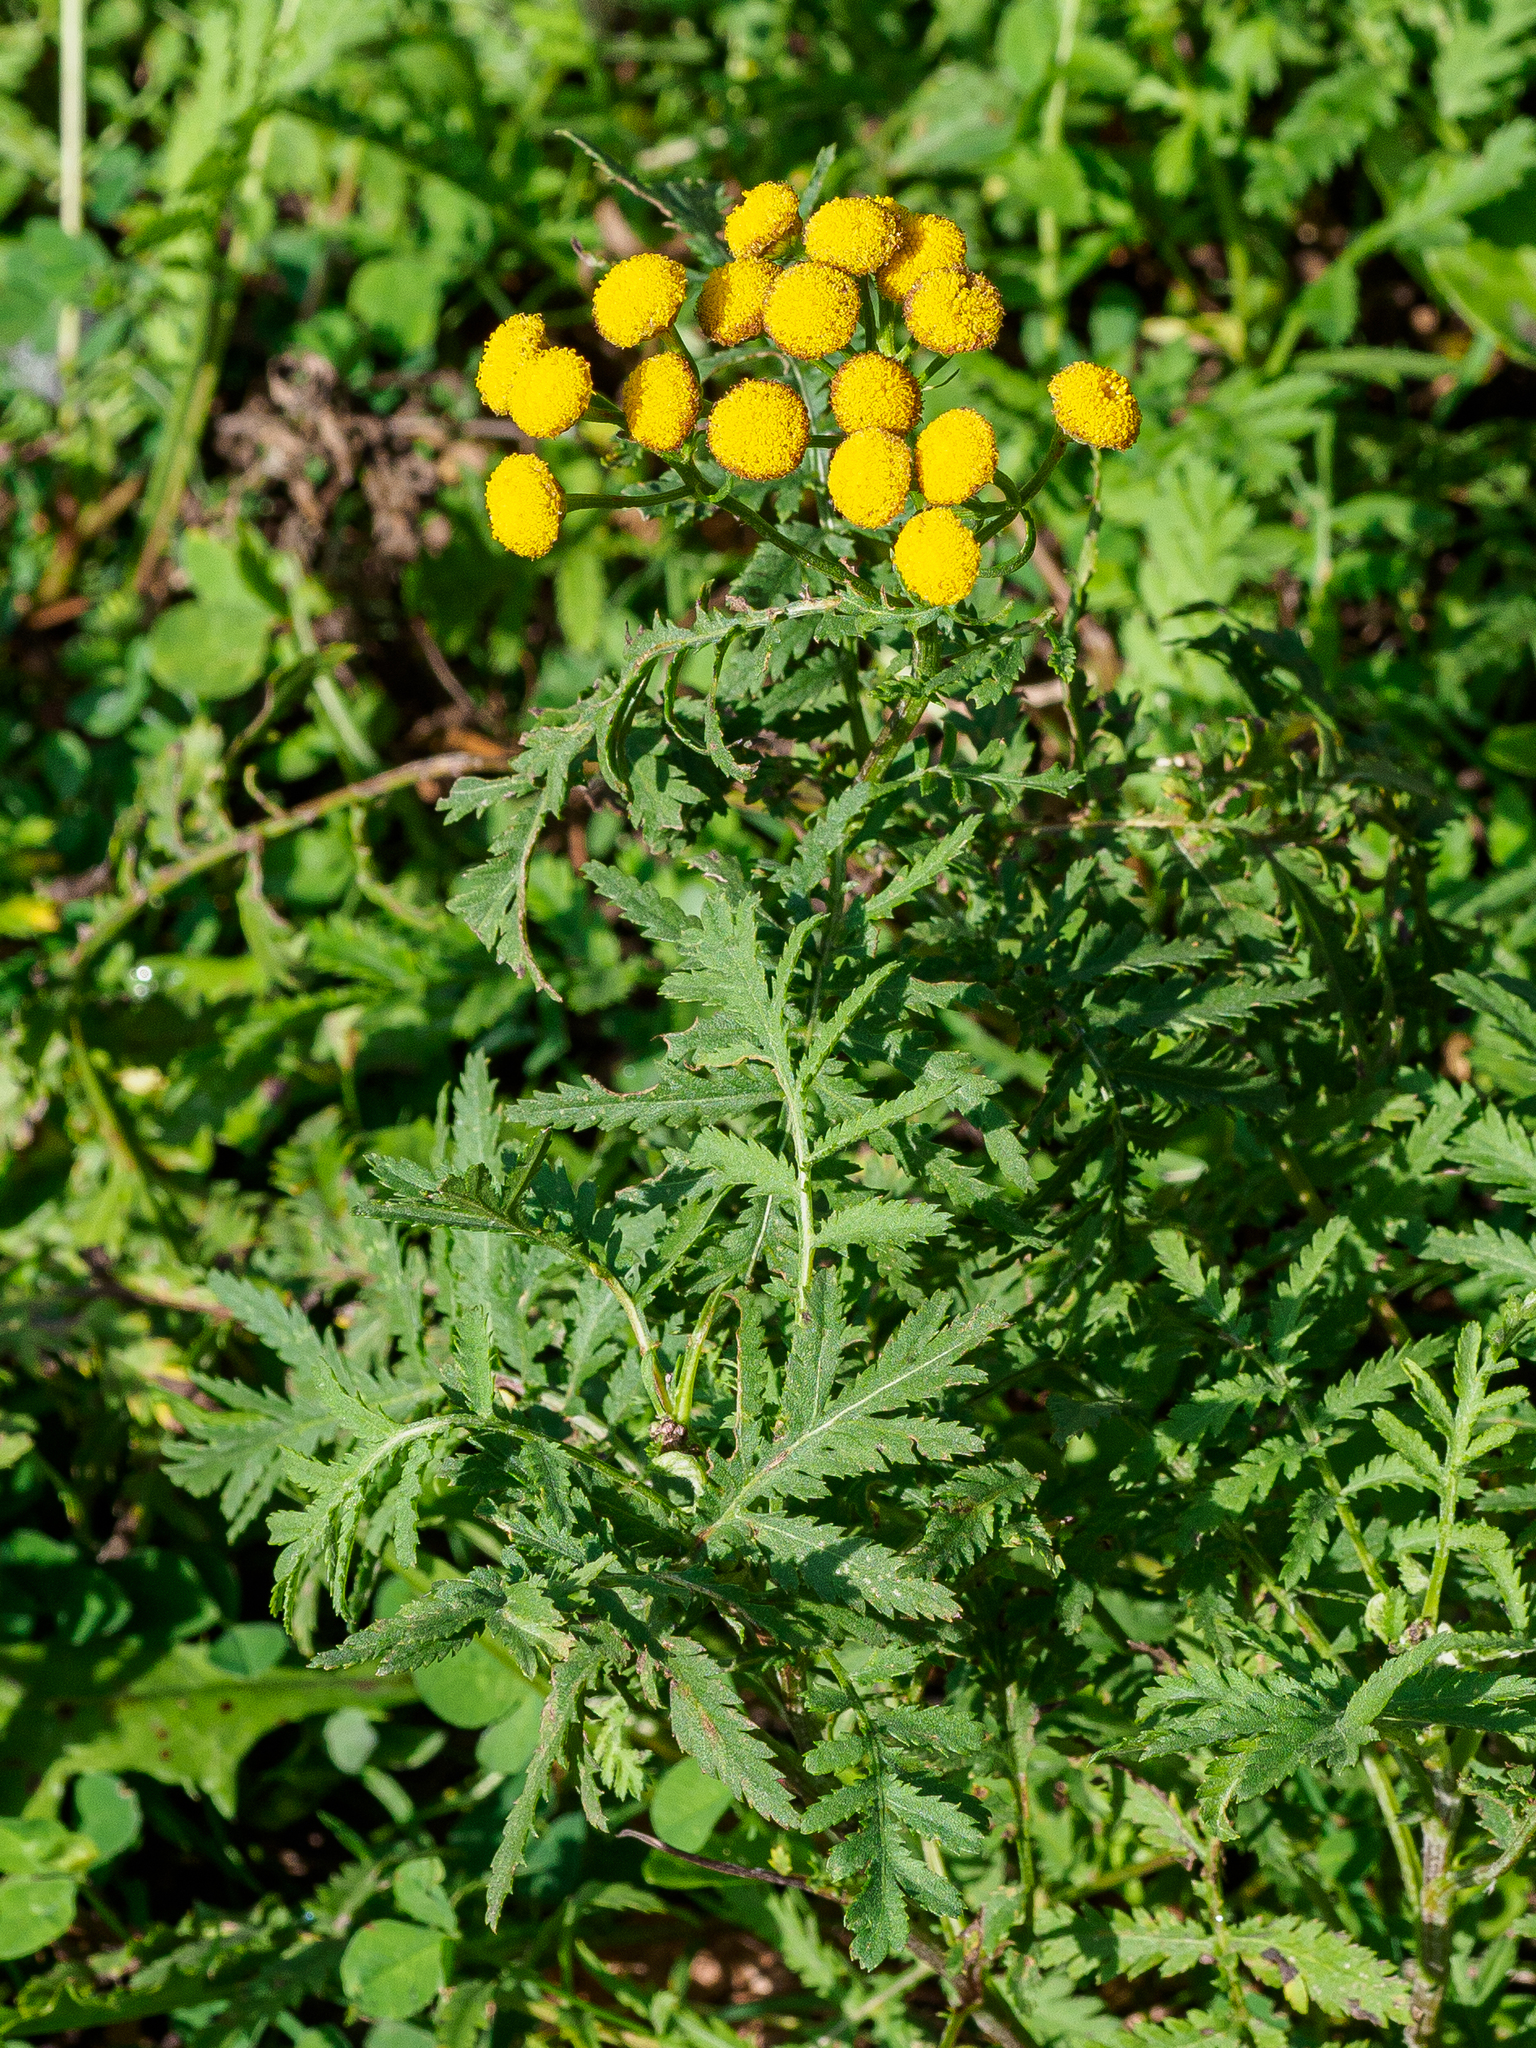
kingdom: Plantae
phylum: Tracheophyta
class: Magnoliopsida
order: Asterales
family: Asteraceae
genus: Tanacetum
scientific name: Tanacetum vulgare
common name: Common tansy
